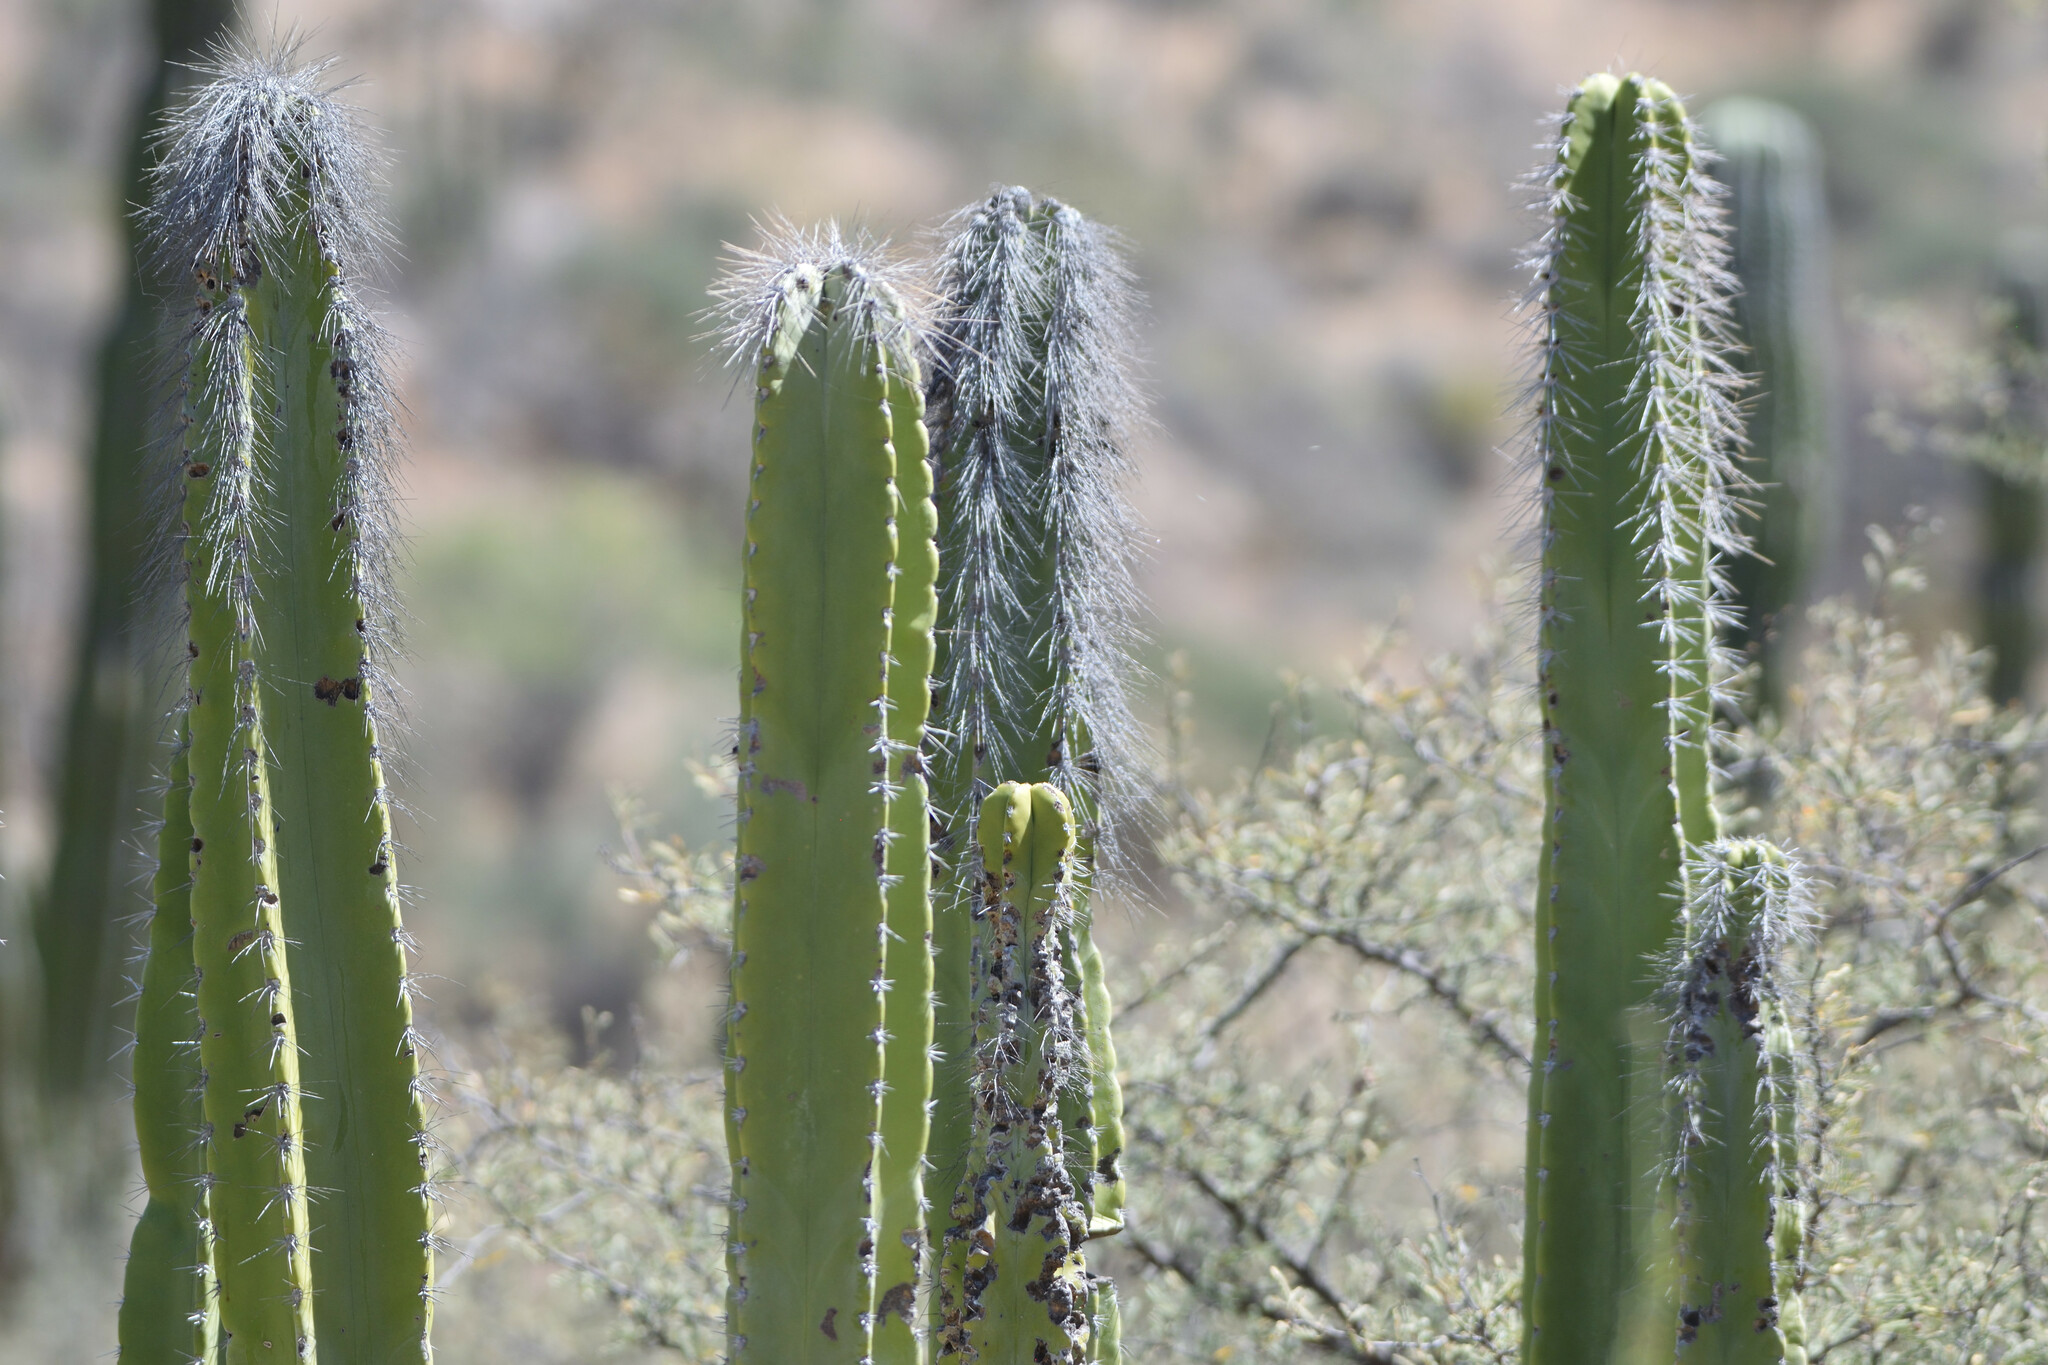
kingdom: Plantae
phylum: Tracheophyta
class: Magnoliopsida
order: Caryophyllales
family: Cactaceae
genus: Pachycereus
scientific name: Pachycereus schottii
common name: Senita cactus
